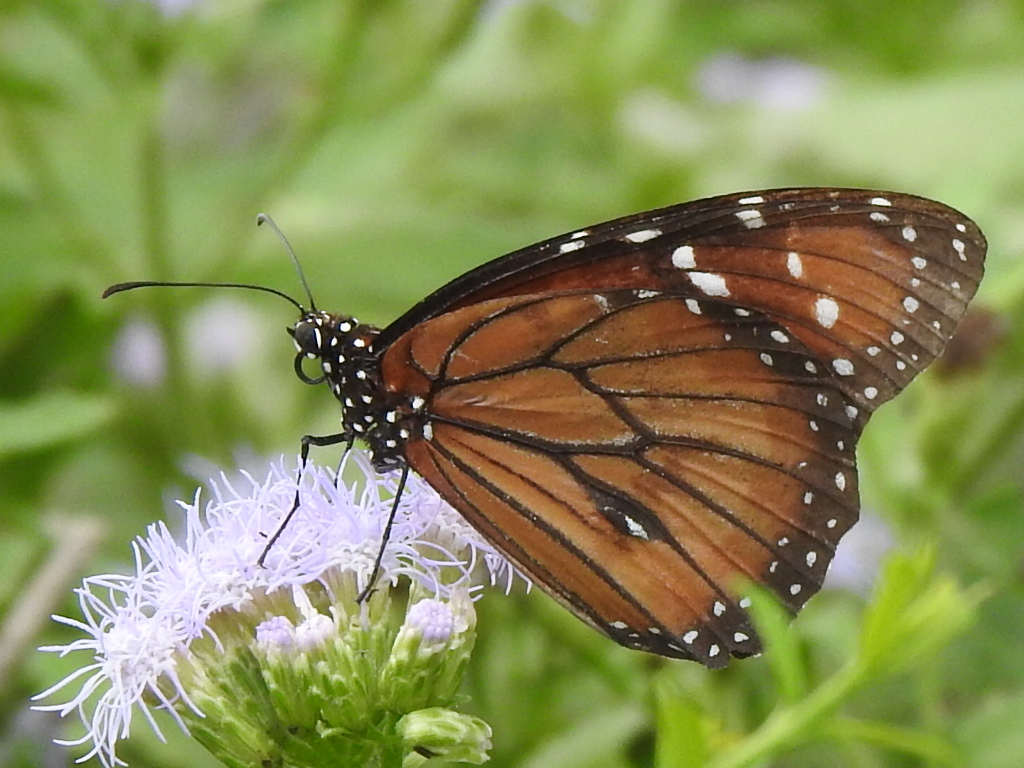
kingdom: Animalia
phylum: Arthropoda
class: Insecta
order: Lepidoptera
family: Nymphalidae
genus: Danaus
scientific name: Danaus eresimus
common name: Soldier
